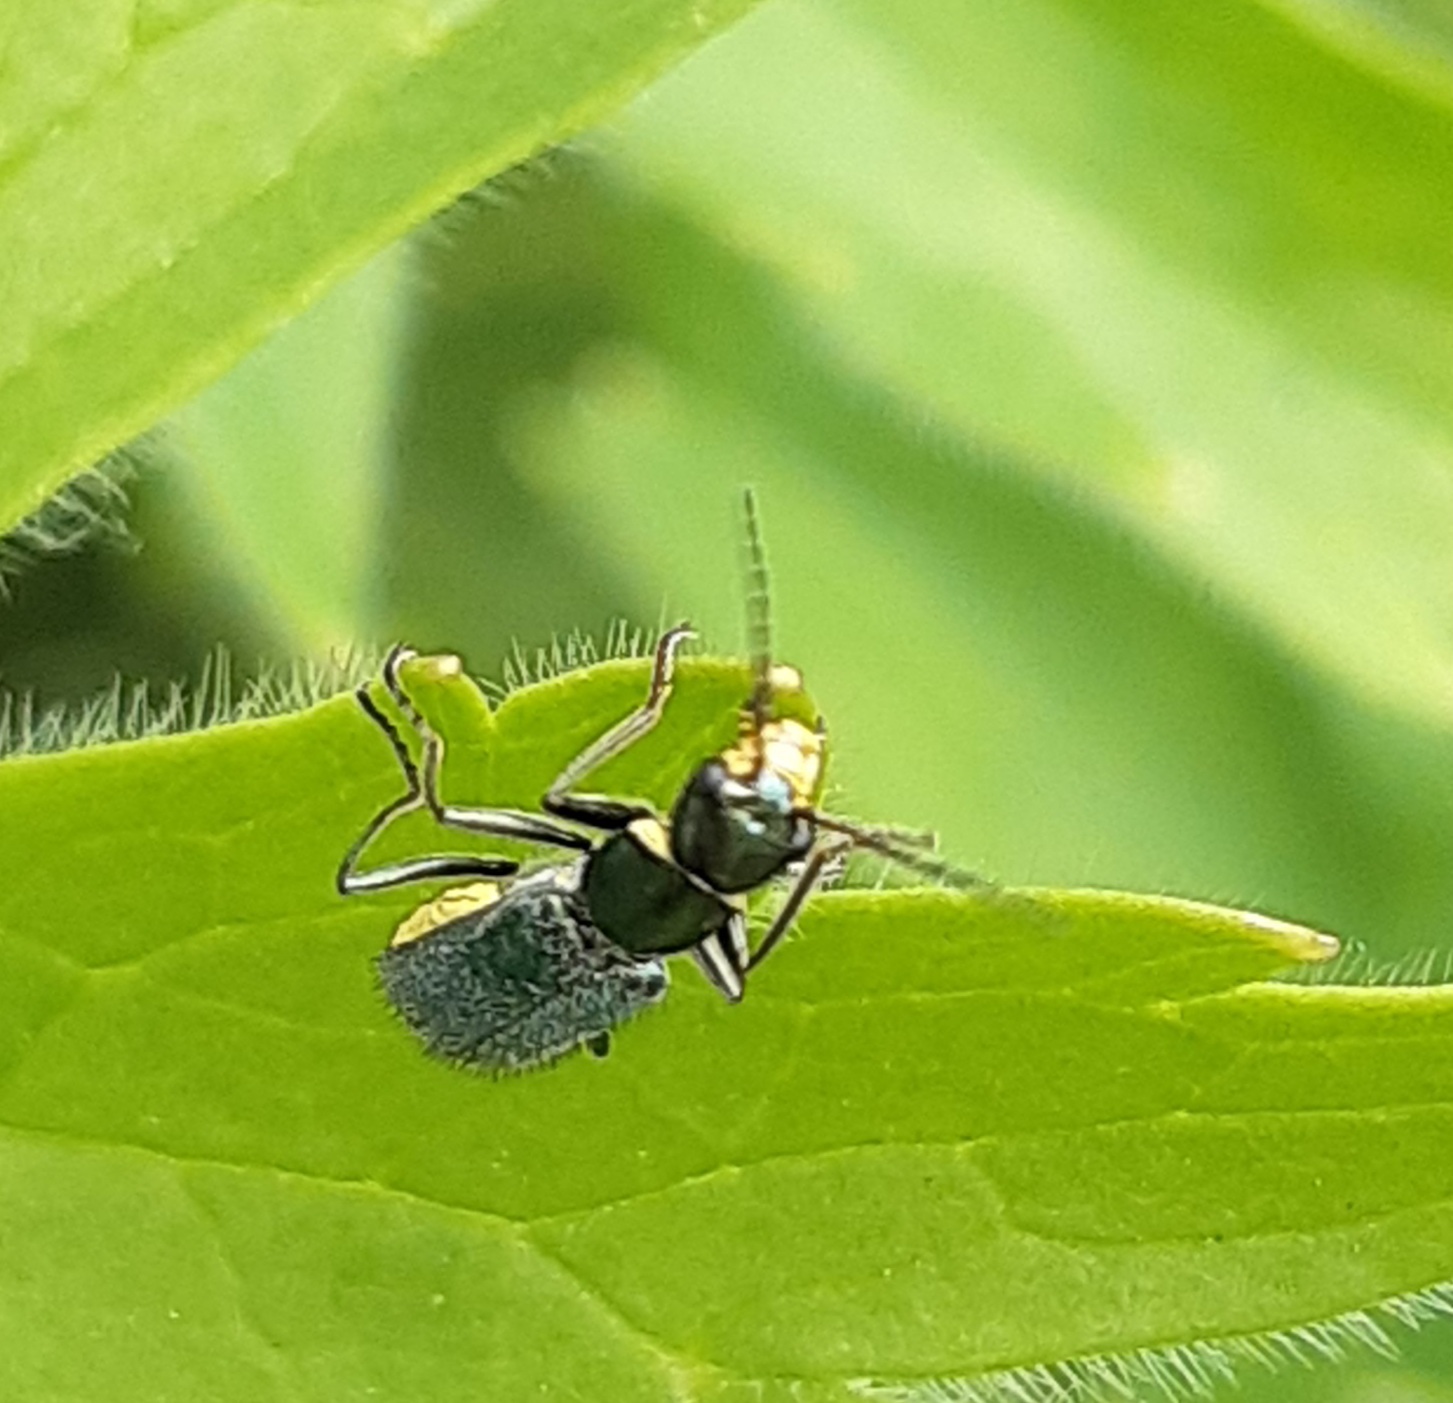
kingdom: Animalia
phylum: Arthropoda
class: Insecta
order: Coleoptera
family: Melyridae
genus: Malachius
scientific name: Malachius bipustulatus
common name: Malachite beetle
